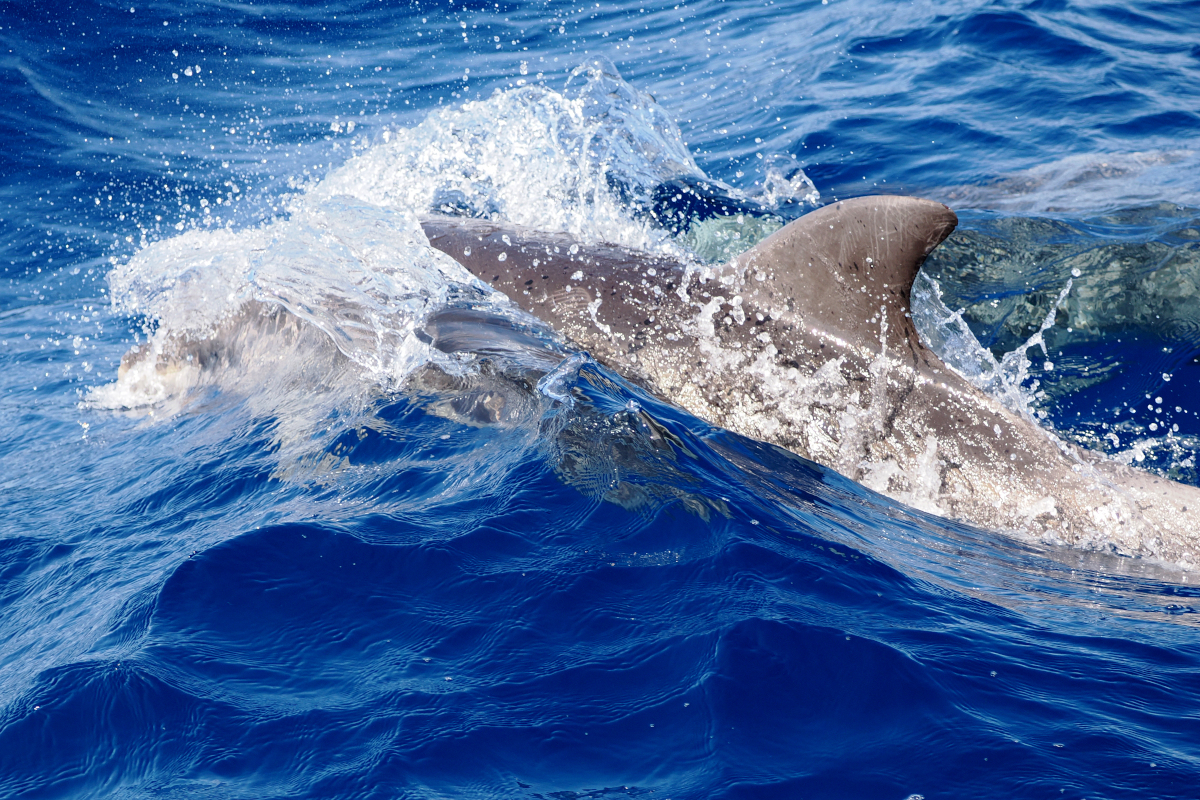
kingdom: Animalia
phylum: Chordata
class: Mammalia
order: Cetacea
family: Delphinidae
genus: Tursiops
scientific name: Tursiops truncatus
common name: Bottlenose dolphin
